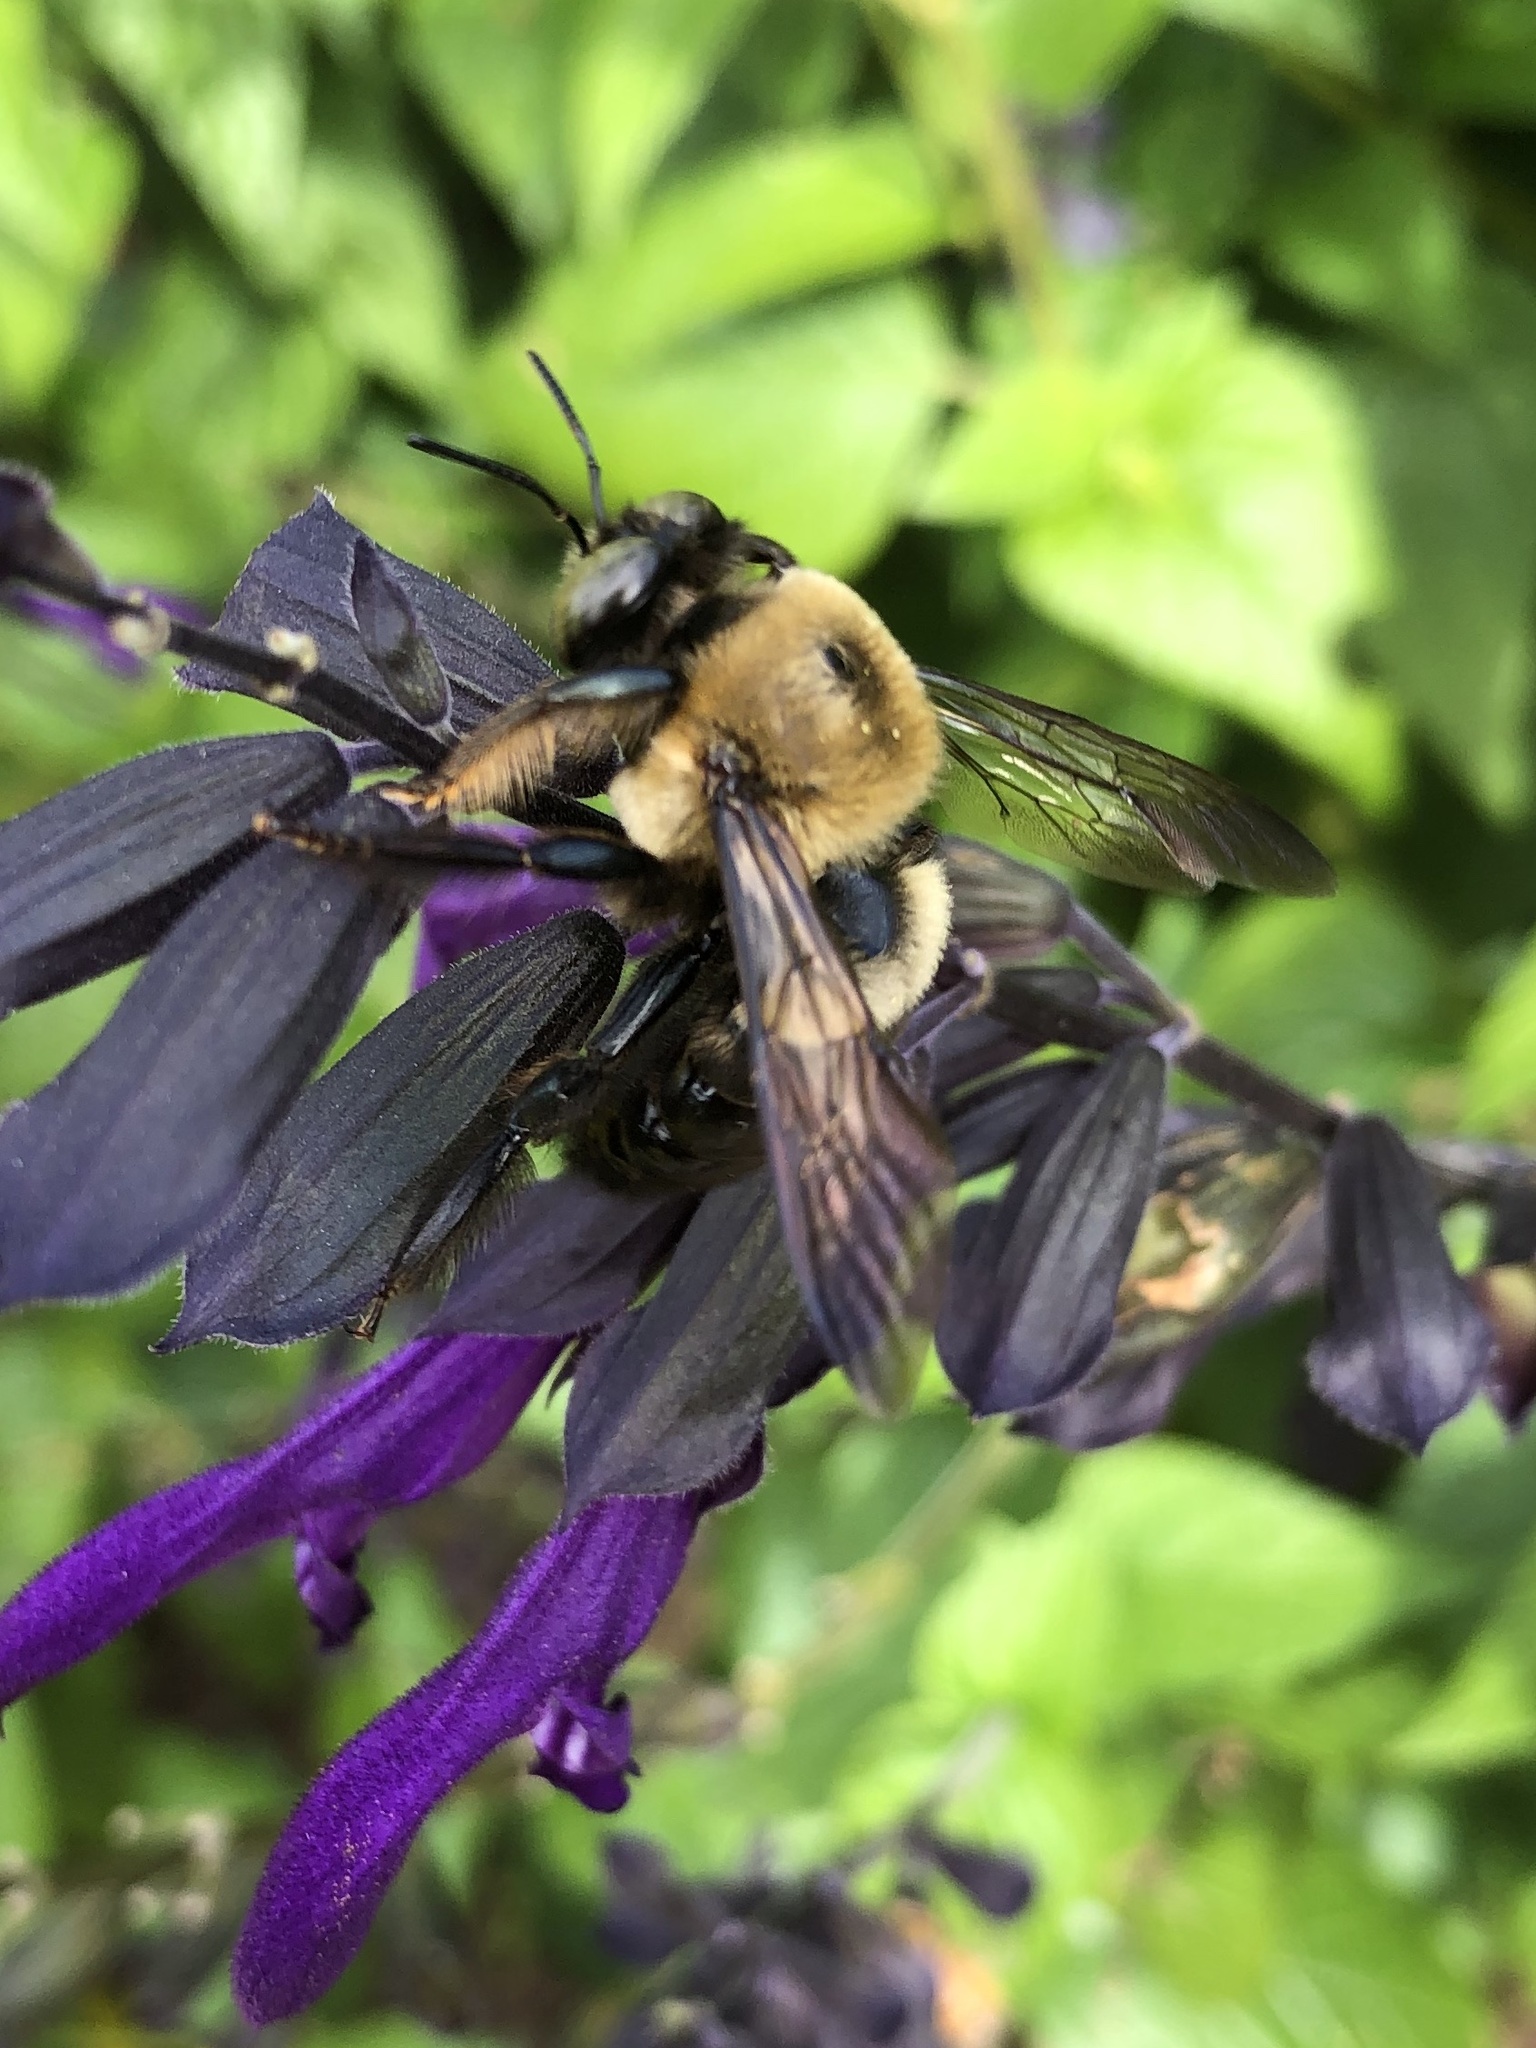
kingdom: Animalia
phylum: Arthropoda
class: Insecta
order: Hymenoptera
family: Apidae
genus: Xylocopa
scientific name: Xylocopa virginica
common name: Carpenter bee
